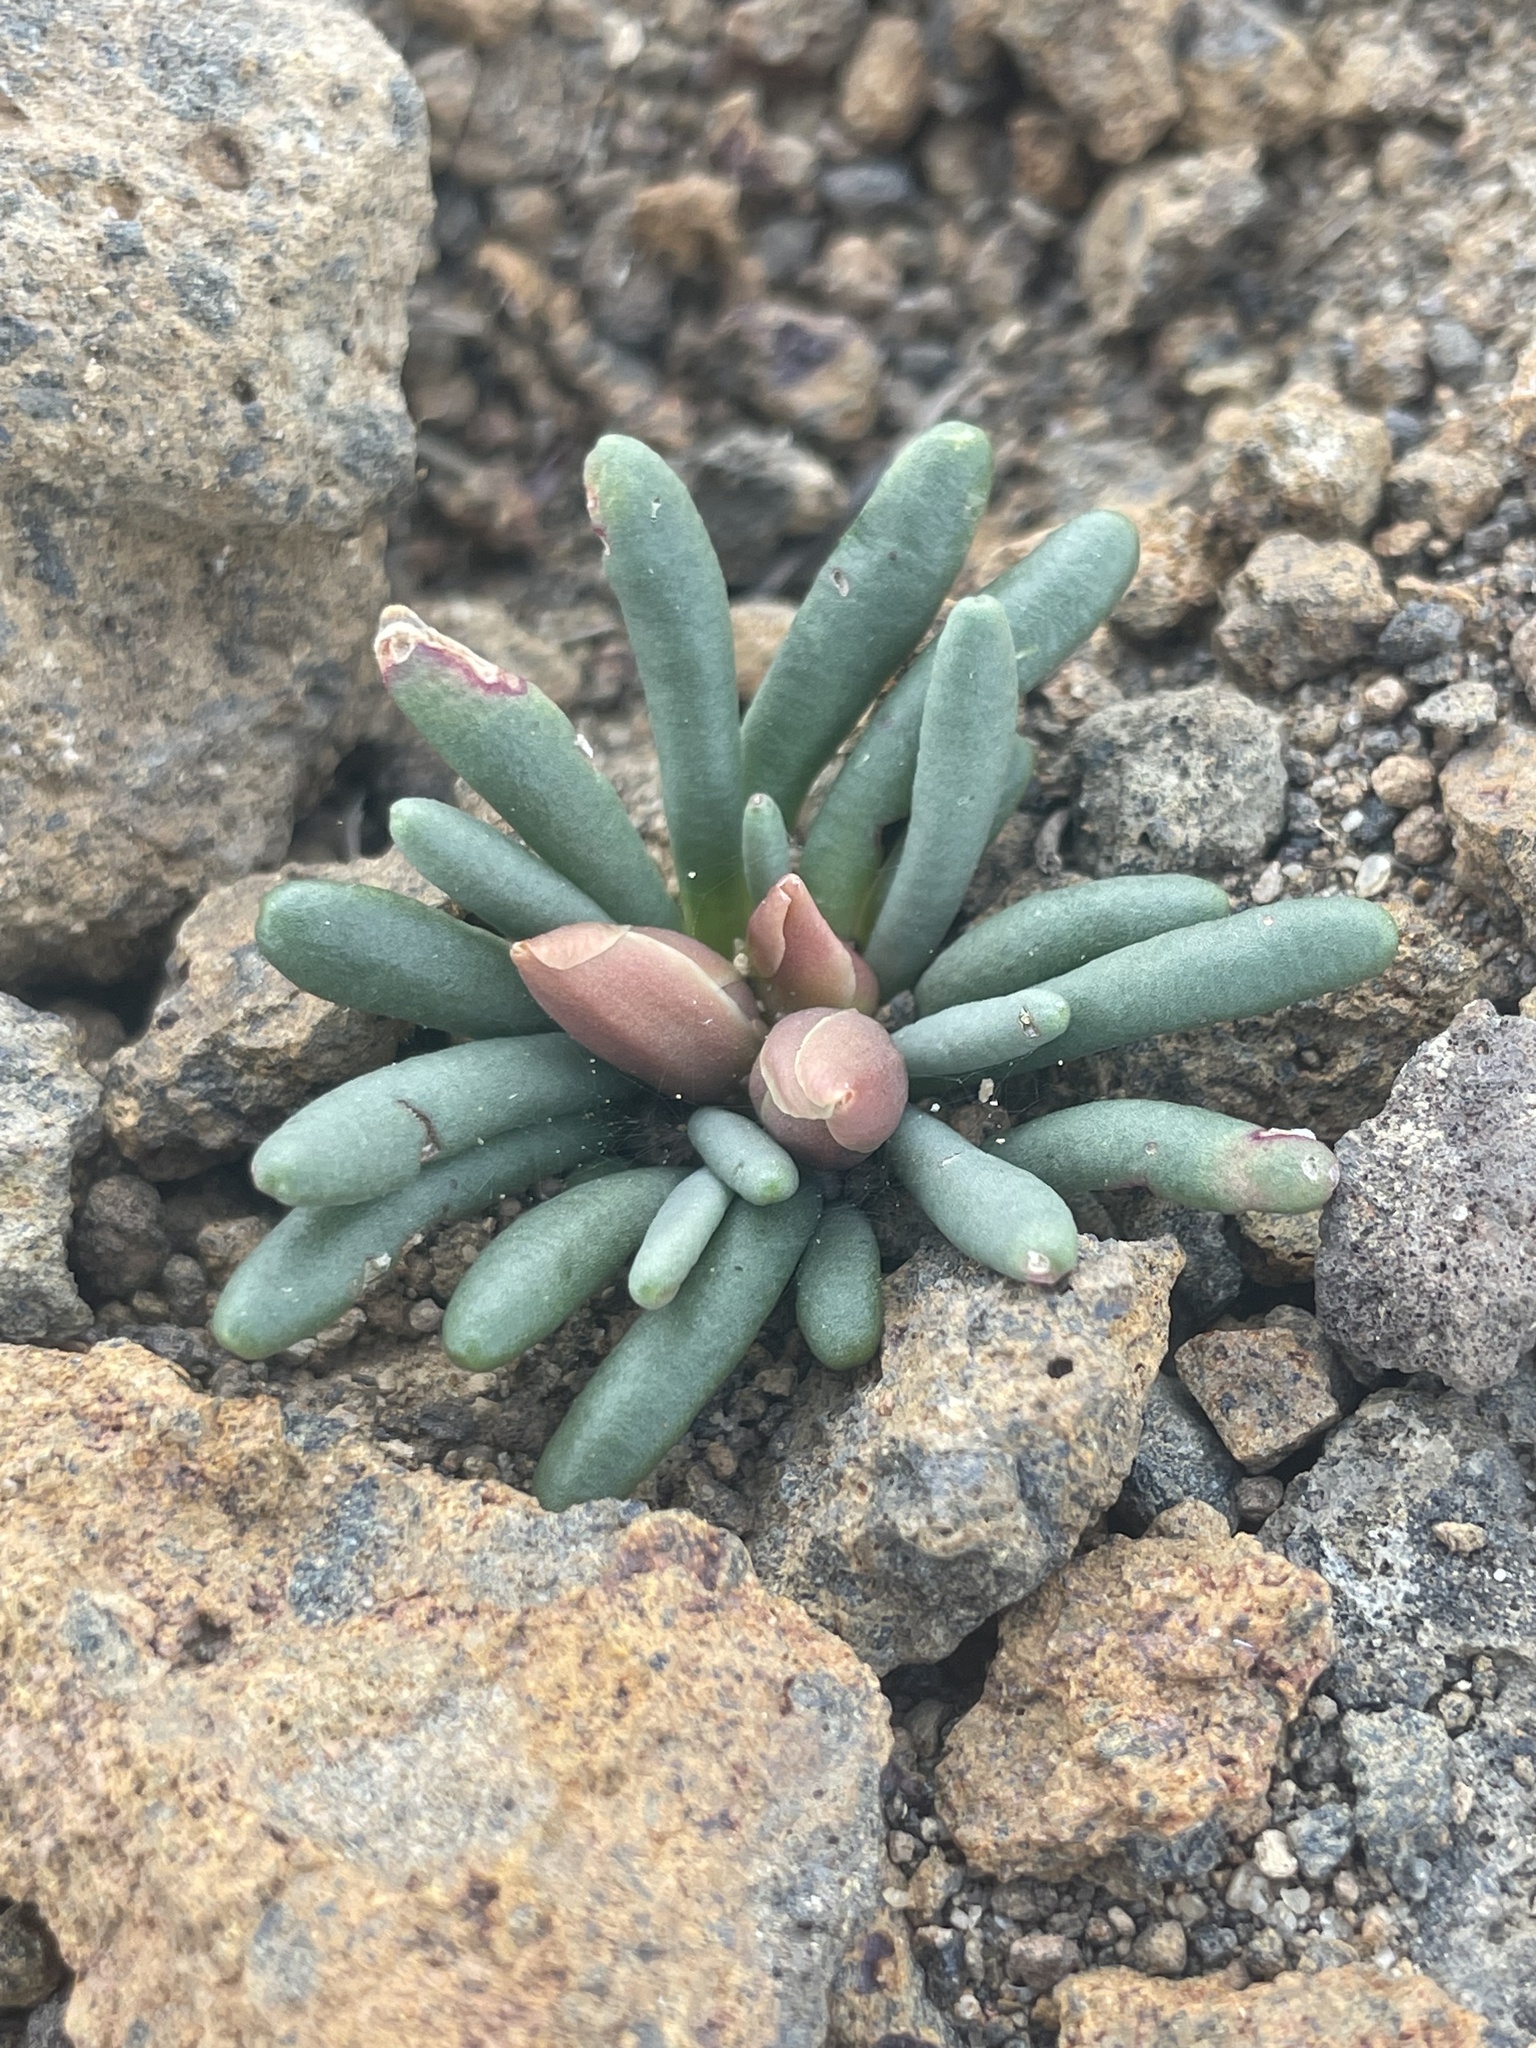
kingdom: Plantae
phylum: Tracheophyta
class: Magnoliopsida
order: Caryophyllales
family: Montiaceae
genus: Lewisia
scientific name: Lewisia rediviva
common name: Bitter-root
